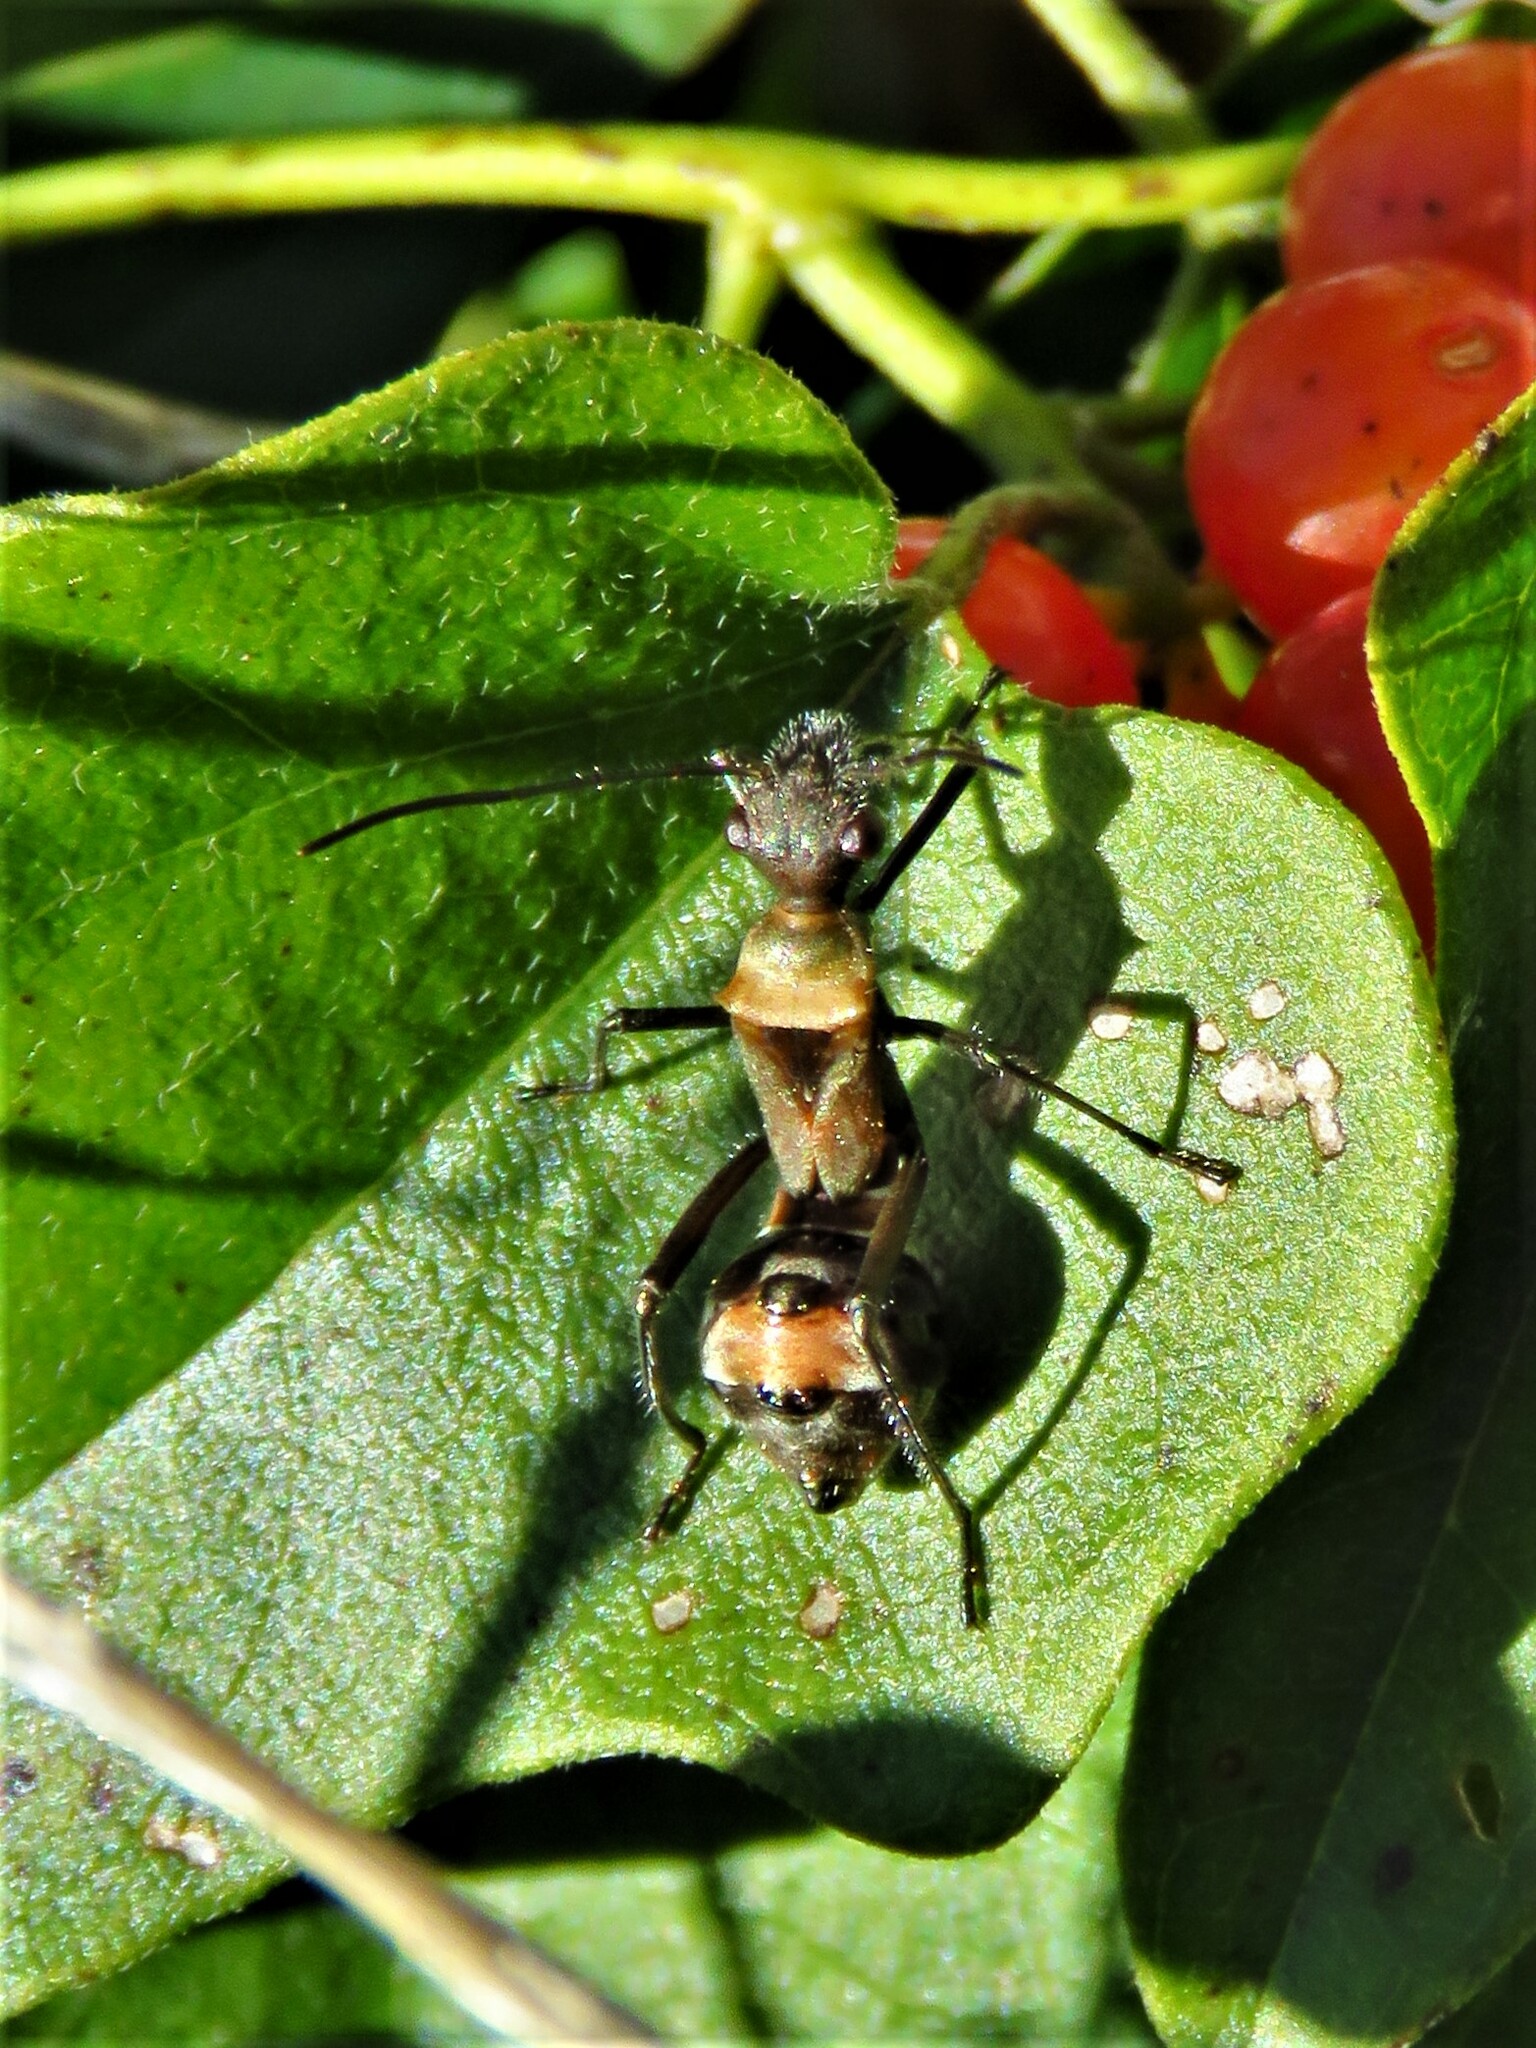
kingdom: Animalia
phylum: Arthropoda
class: Insecta
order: Hemiptera
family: Alydidae
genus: Hyalymenus
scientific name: Hyalymenus tarsatus
